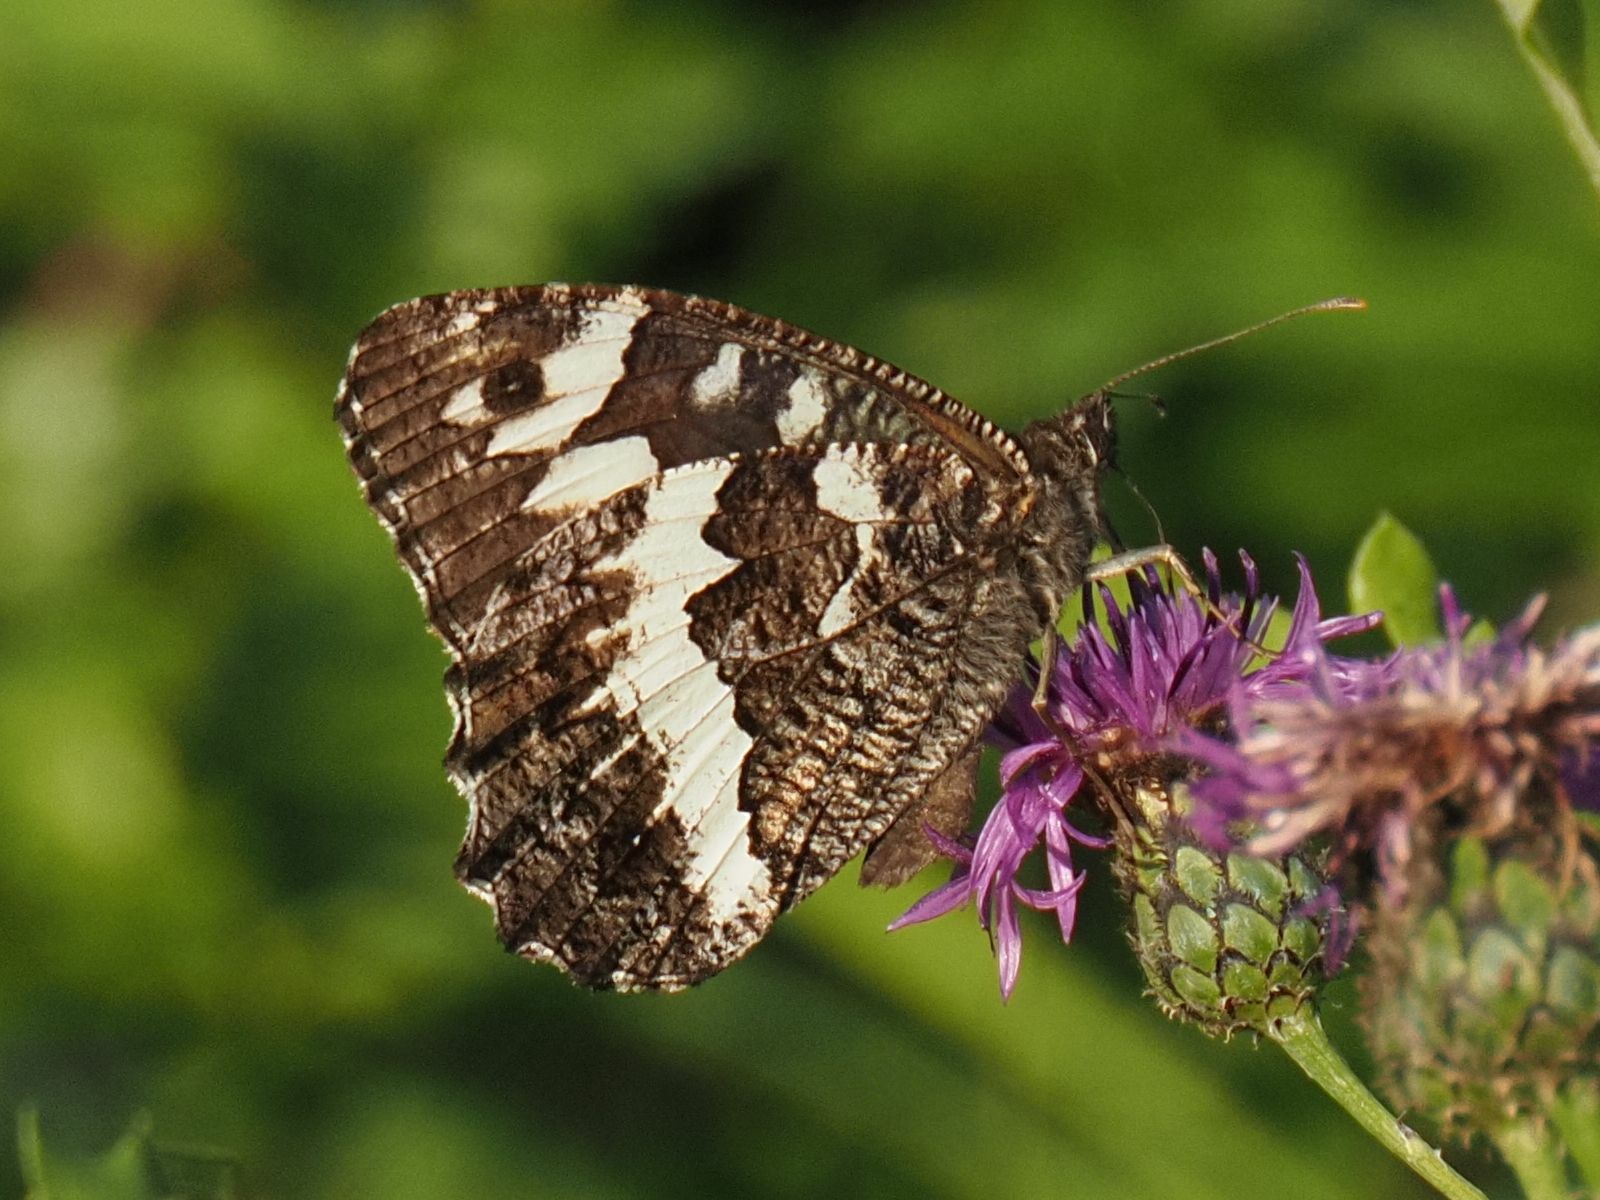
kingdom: Animalia
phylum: Arthropoda
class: Insecta
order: Lepidoptera
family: Lycaenidae
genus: Loweia
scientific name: Loweia tityrus
